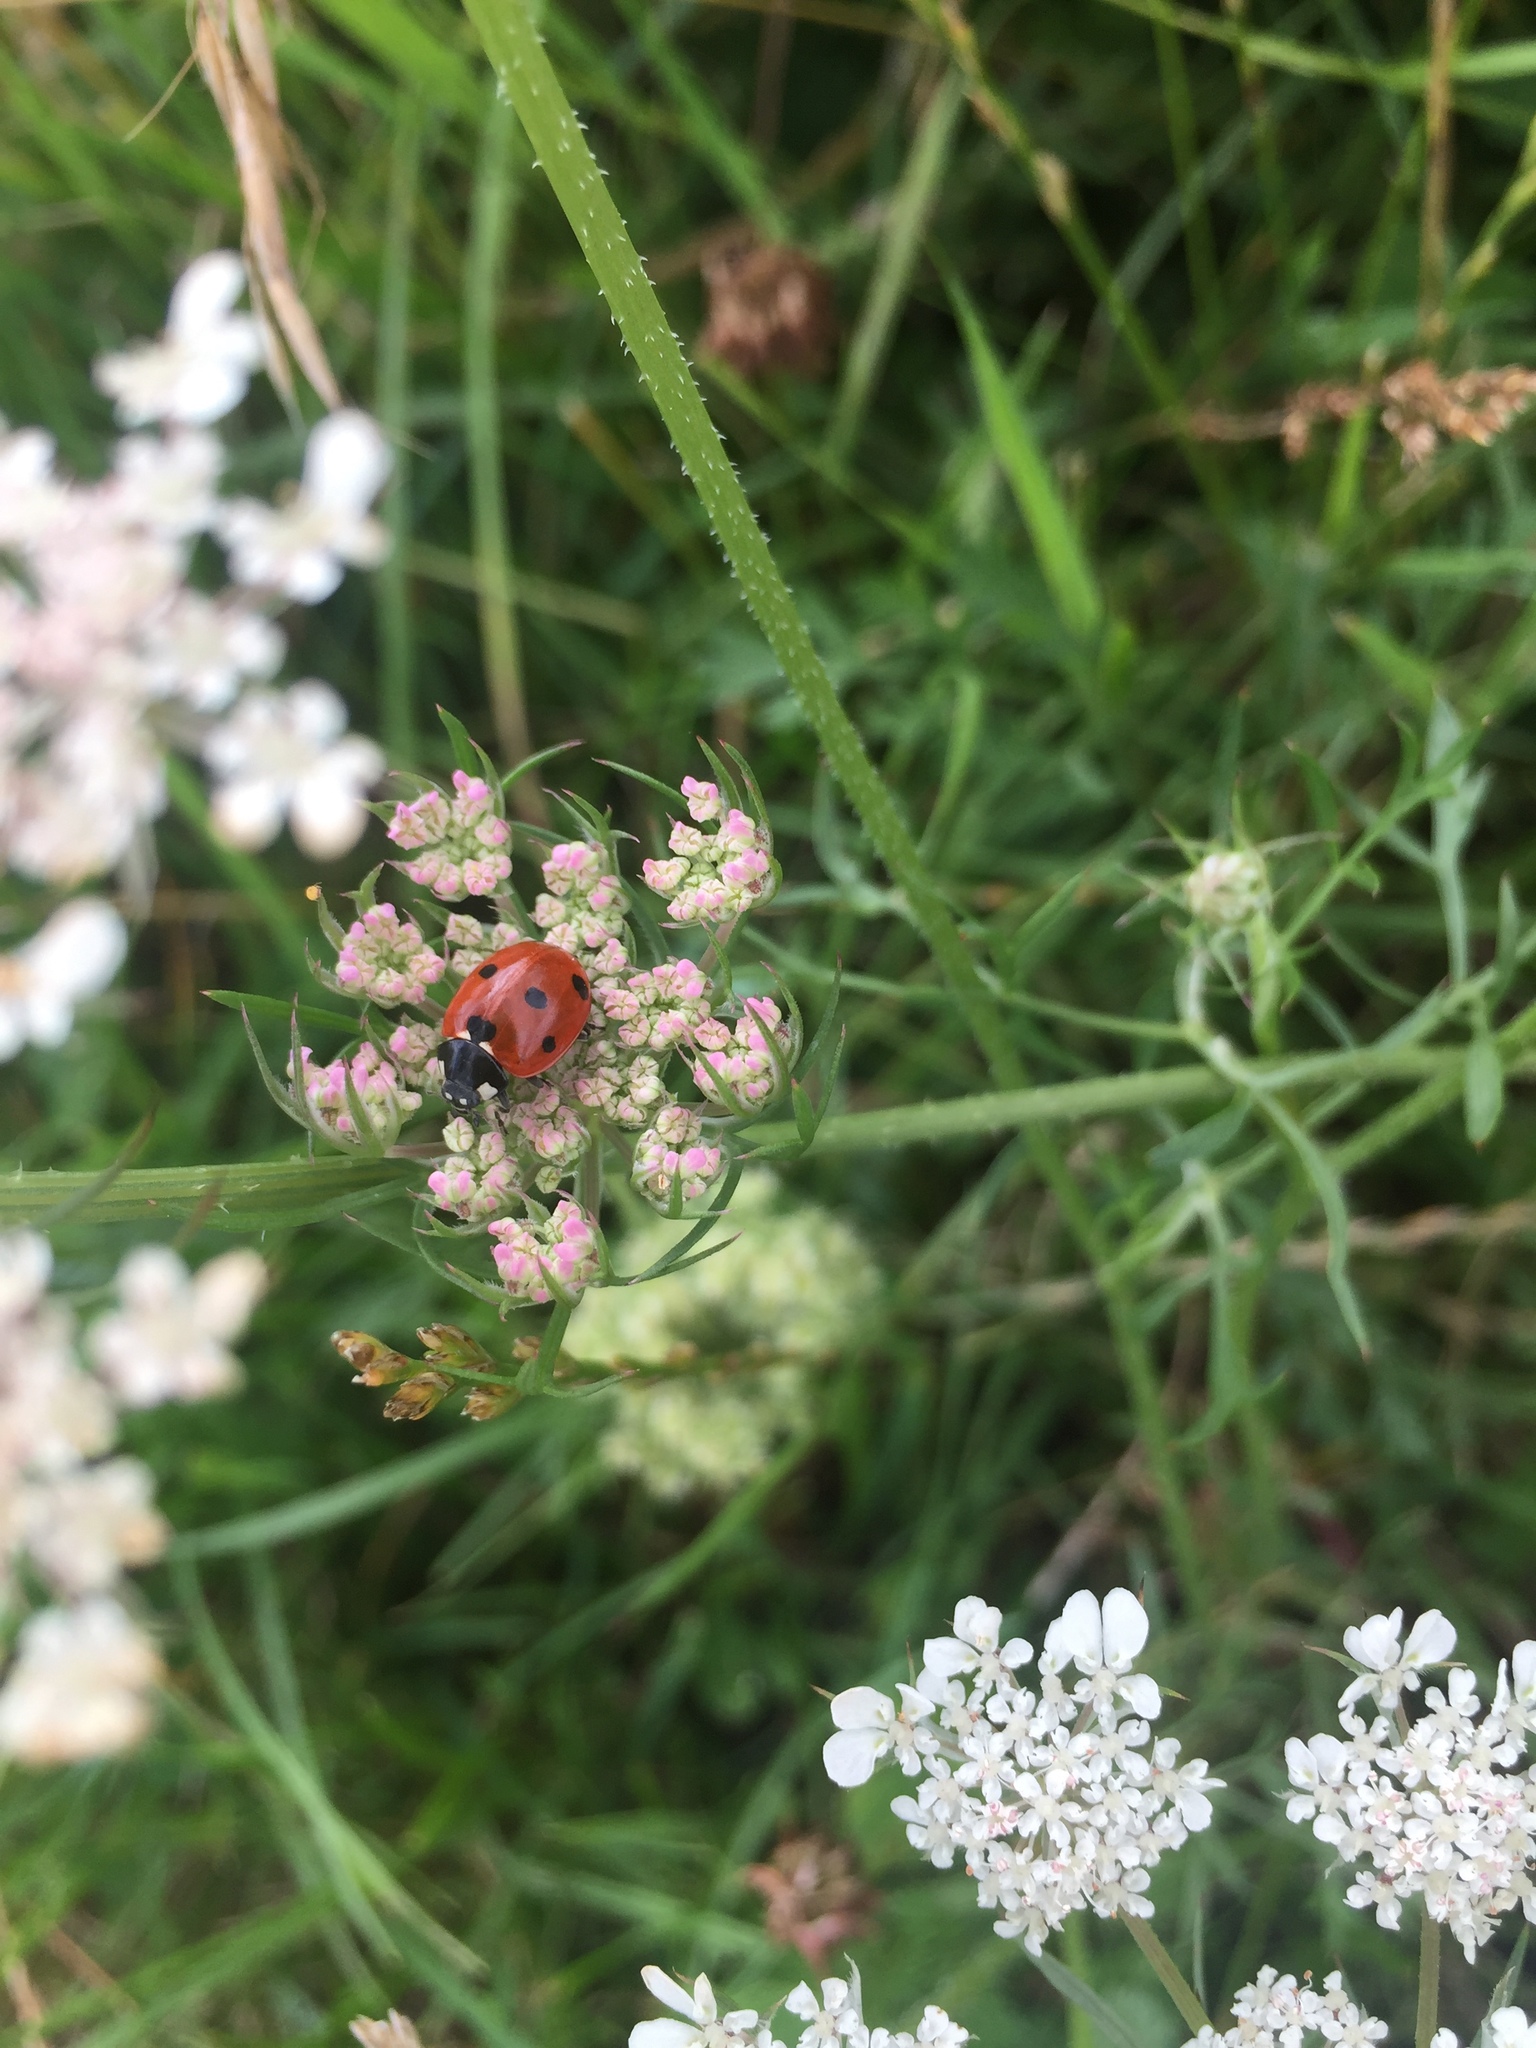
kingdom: Animalia
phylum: Arthropoda
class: Insecta
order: Coleoptera
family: Coccinellidae
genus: Coccinella
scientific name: Coccinella septempunctata
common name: Sevenspotted lady beetle
